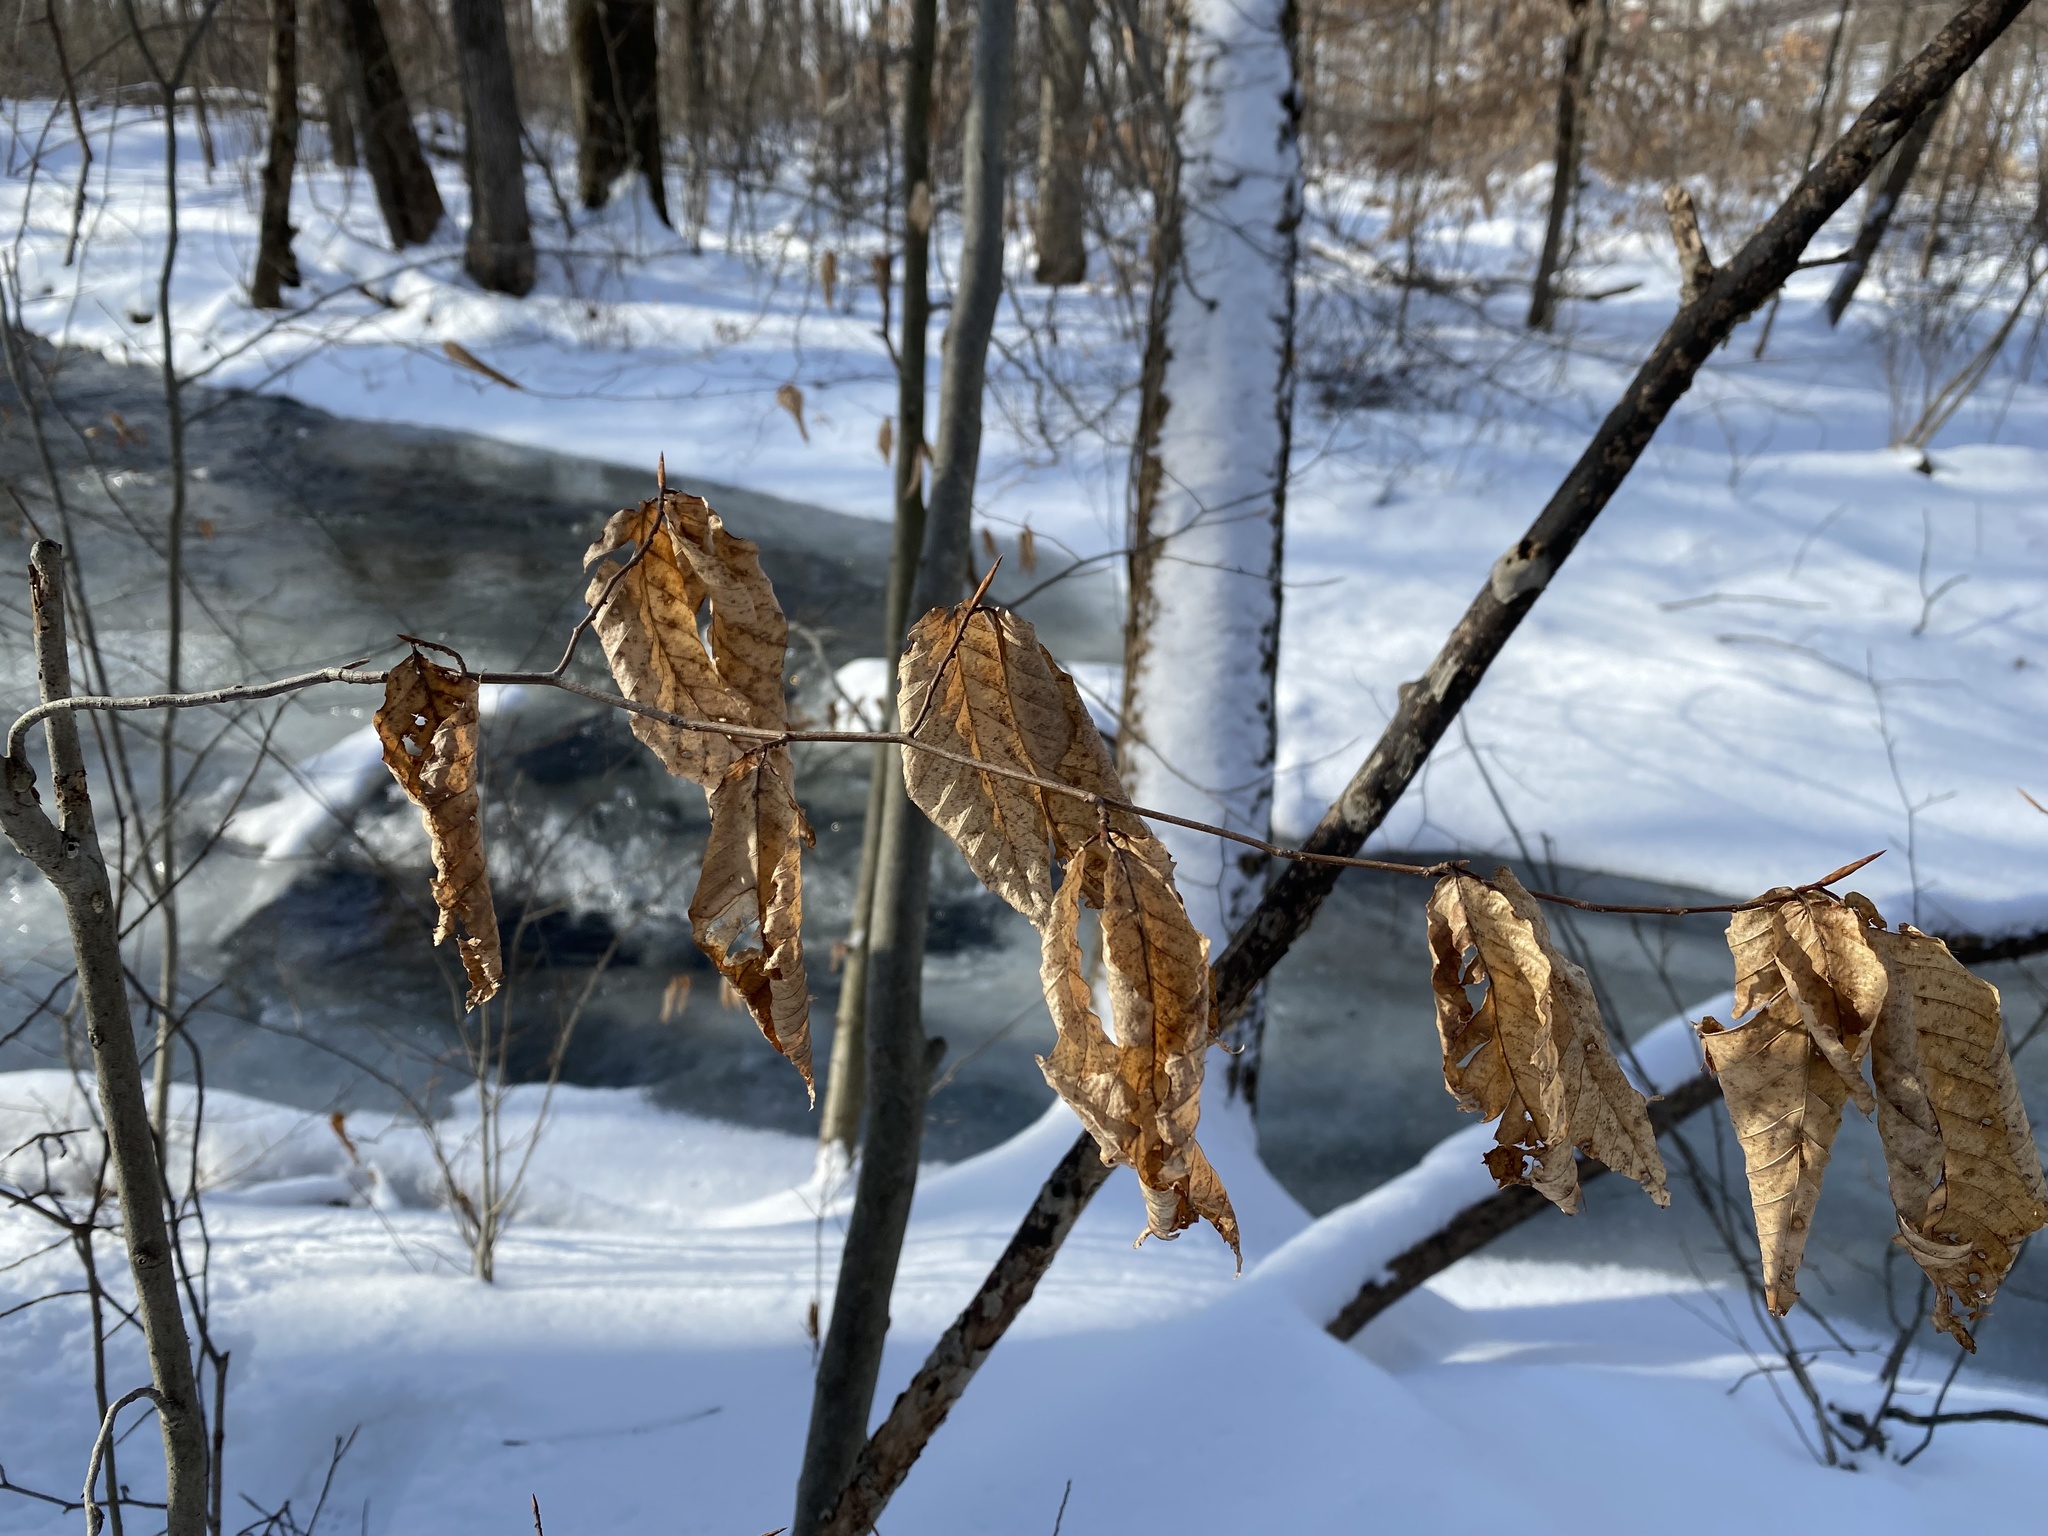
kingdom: Plantae
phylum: Tracheophyta
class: Magnoliopsida
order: Fagales
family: Fagaceae
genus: Fagus
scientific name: Fagus grandifolia
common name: American beech
